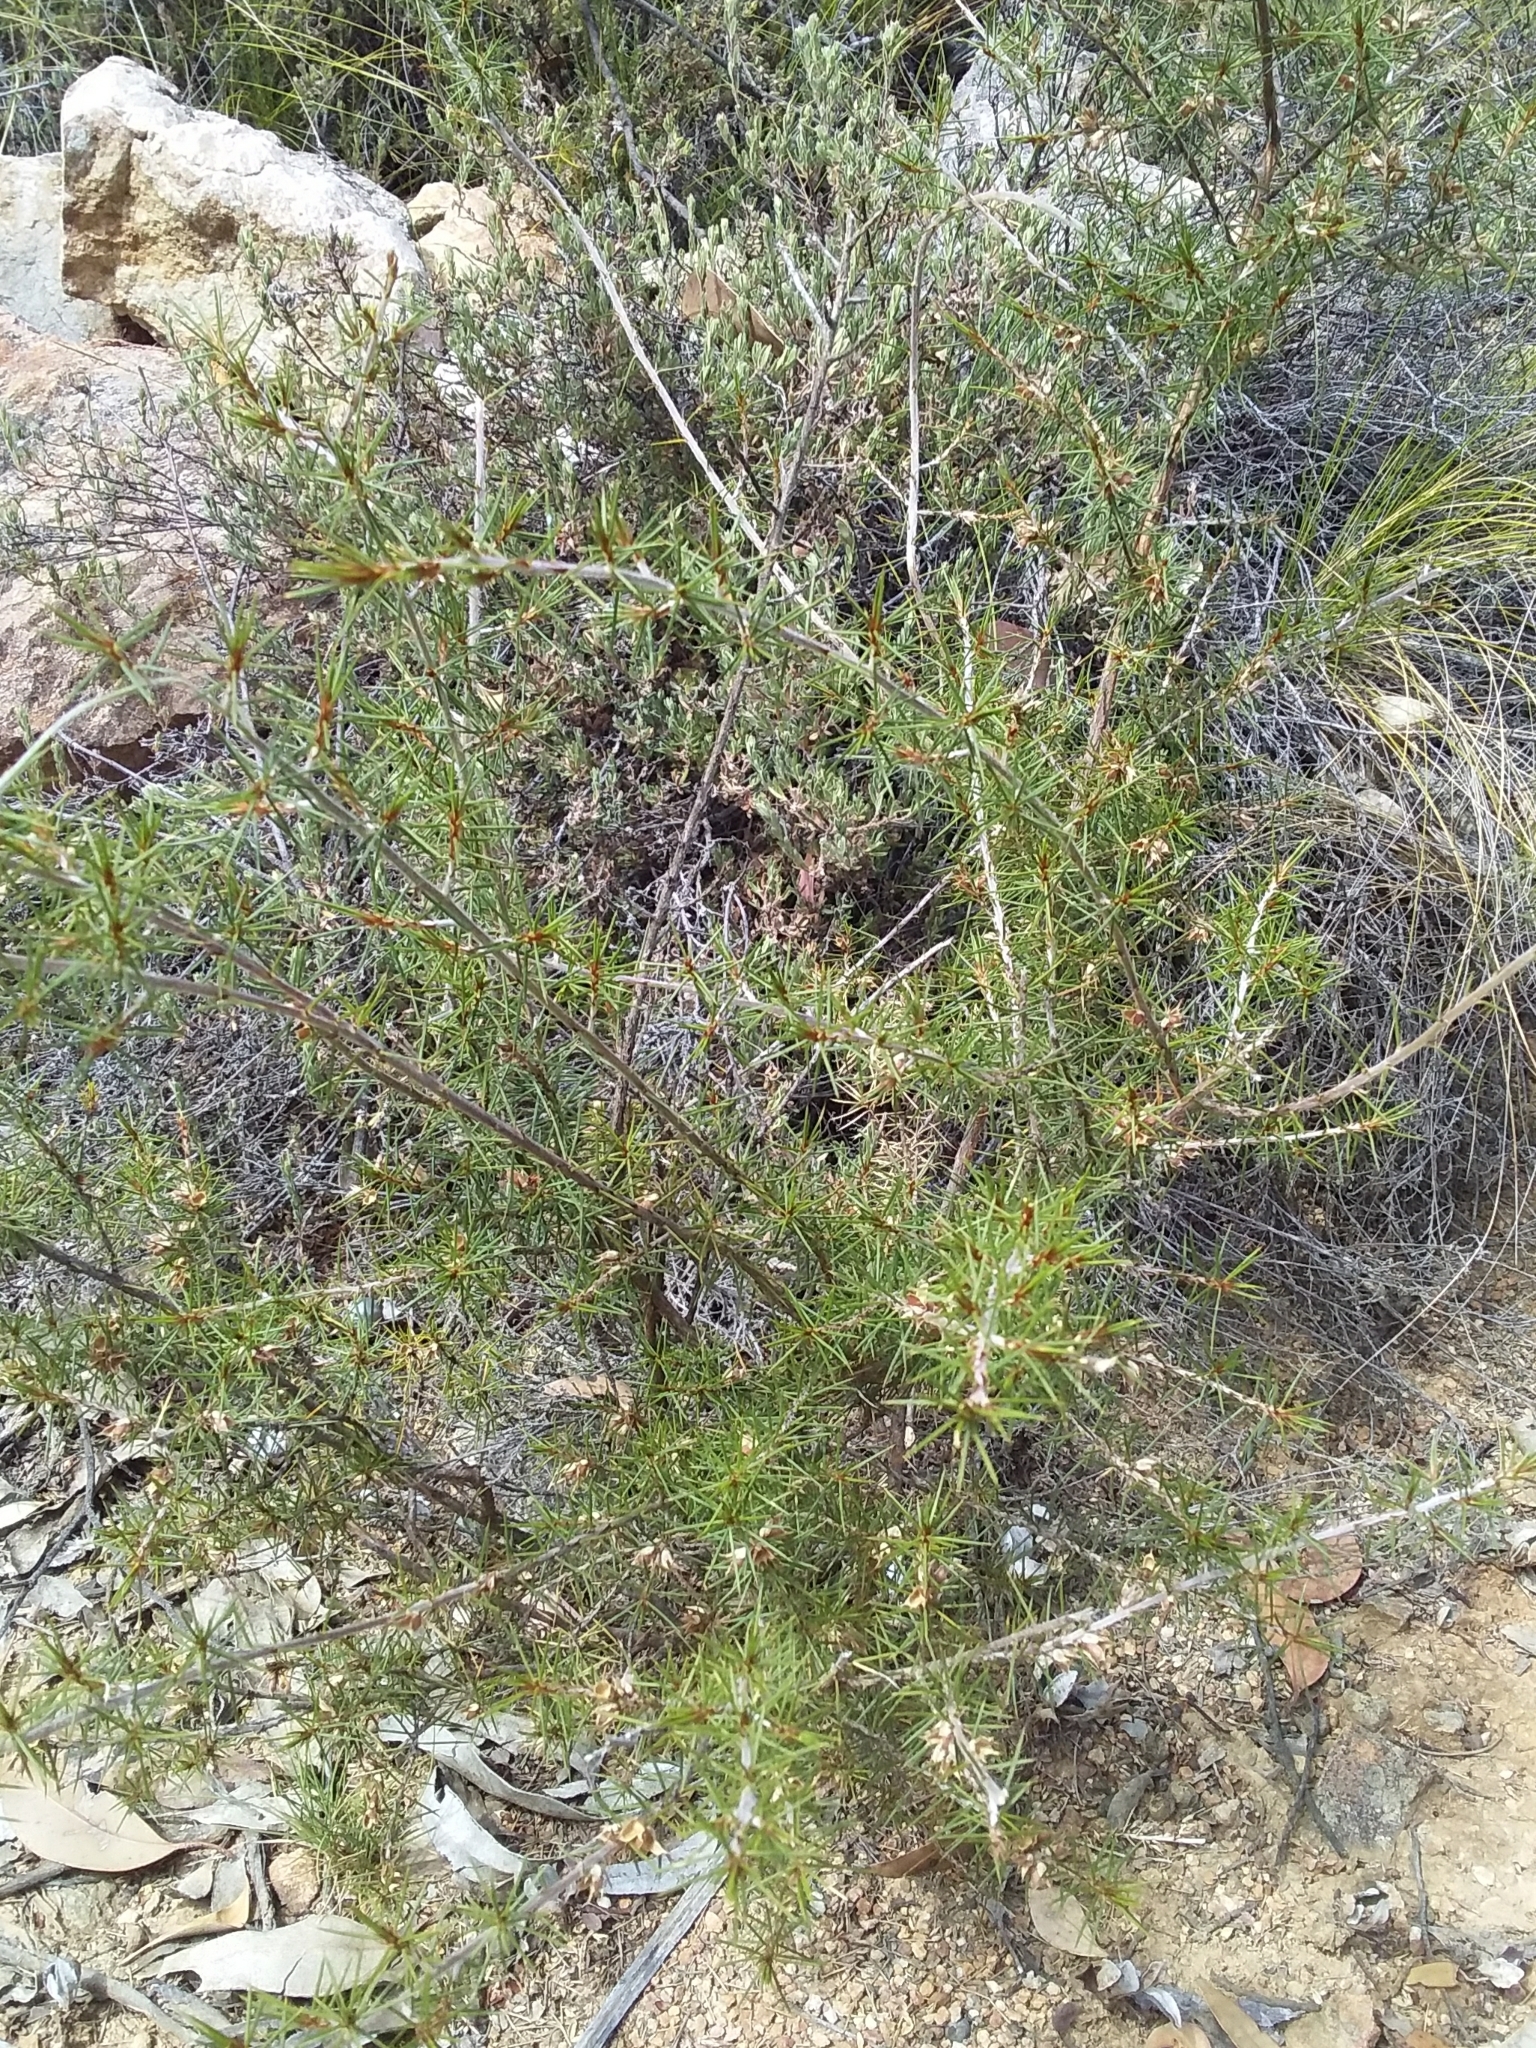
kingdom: Plantae
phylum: Tracheophyta
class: Magnoliopsida
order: Fabales
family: Fabaceae
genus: Pultenaea
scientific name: Pultenaea acerosa
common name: Bristly bush-pea
